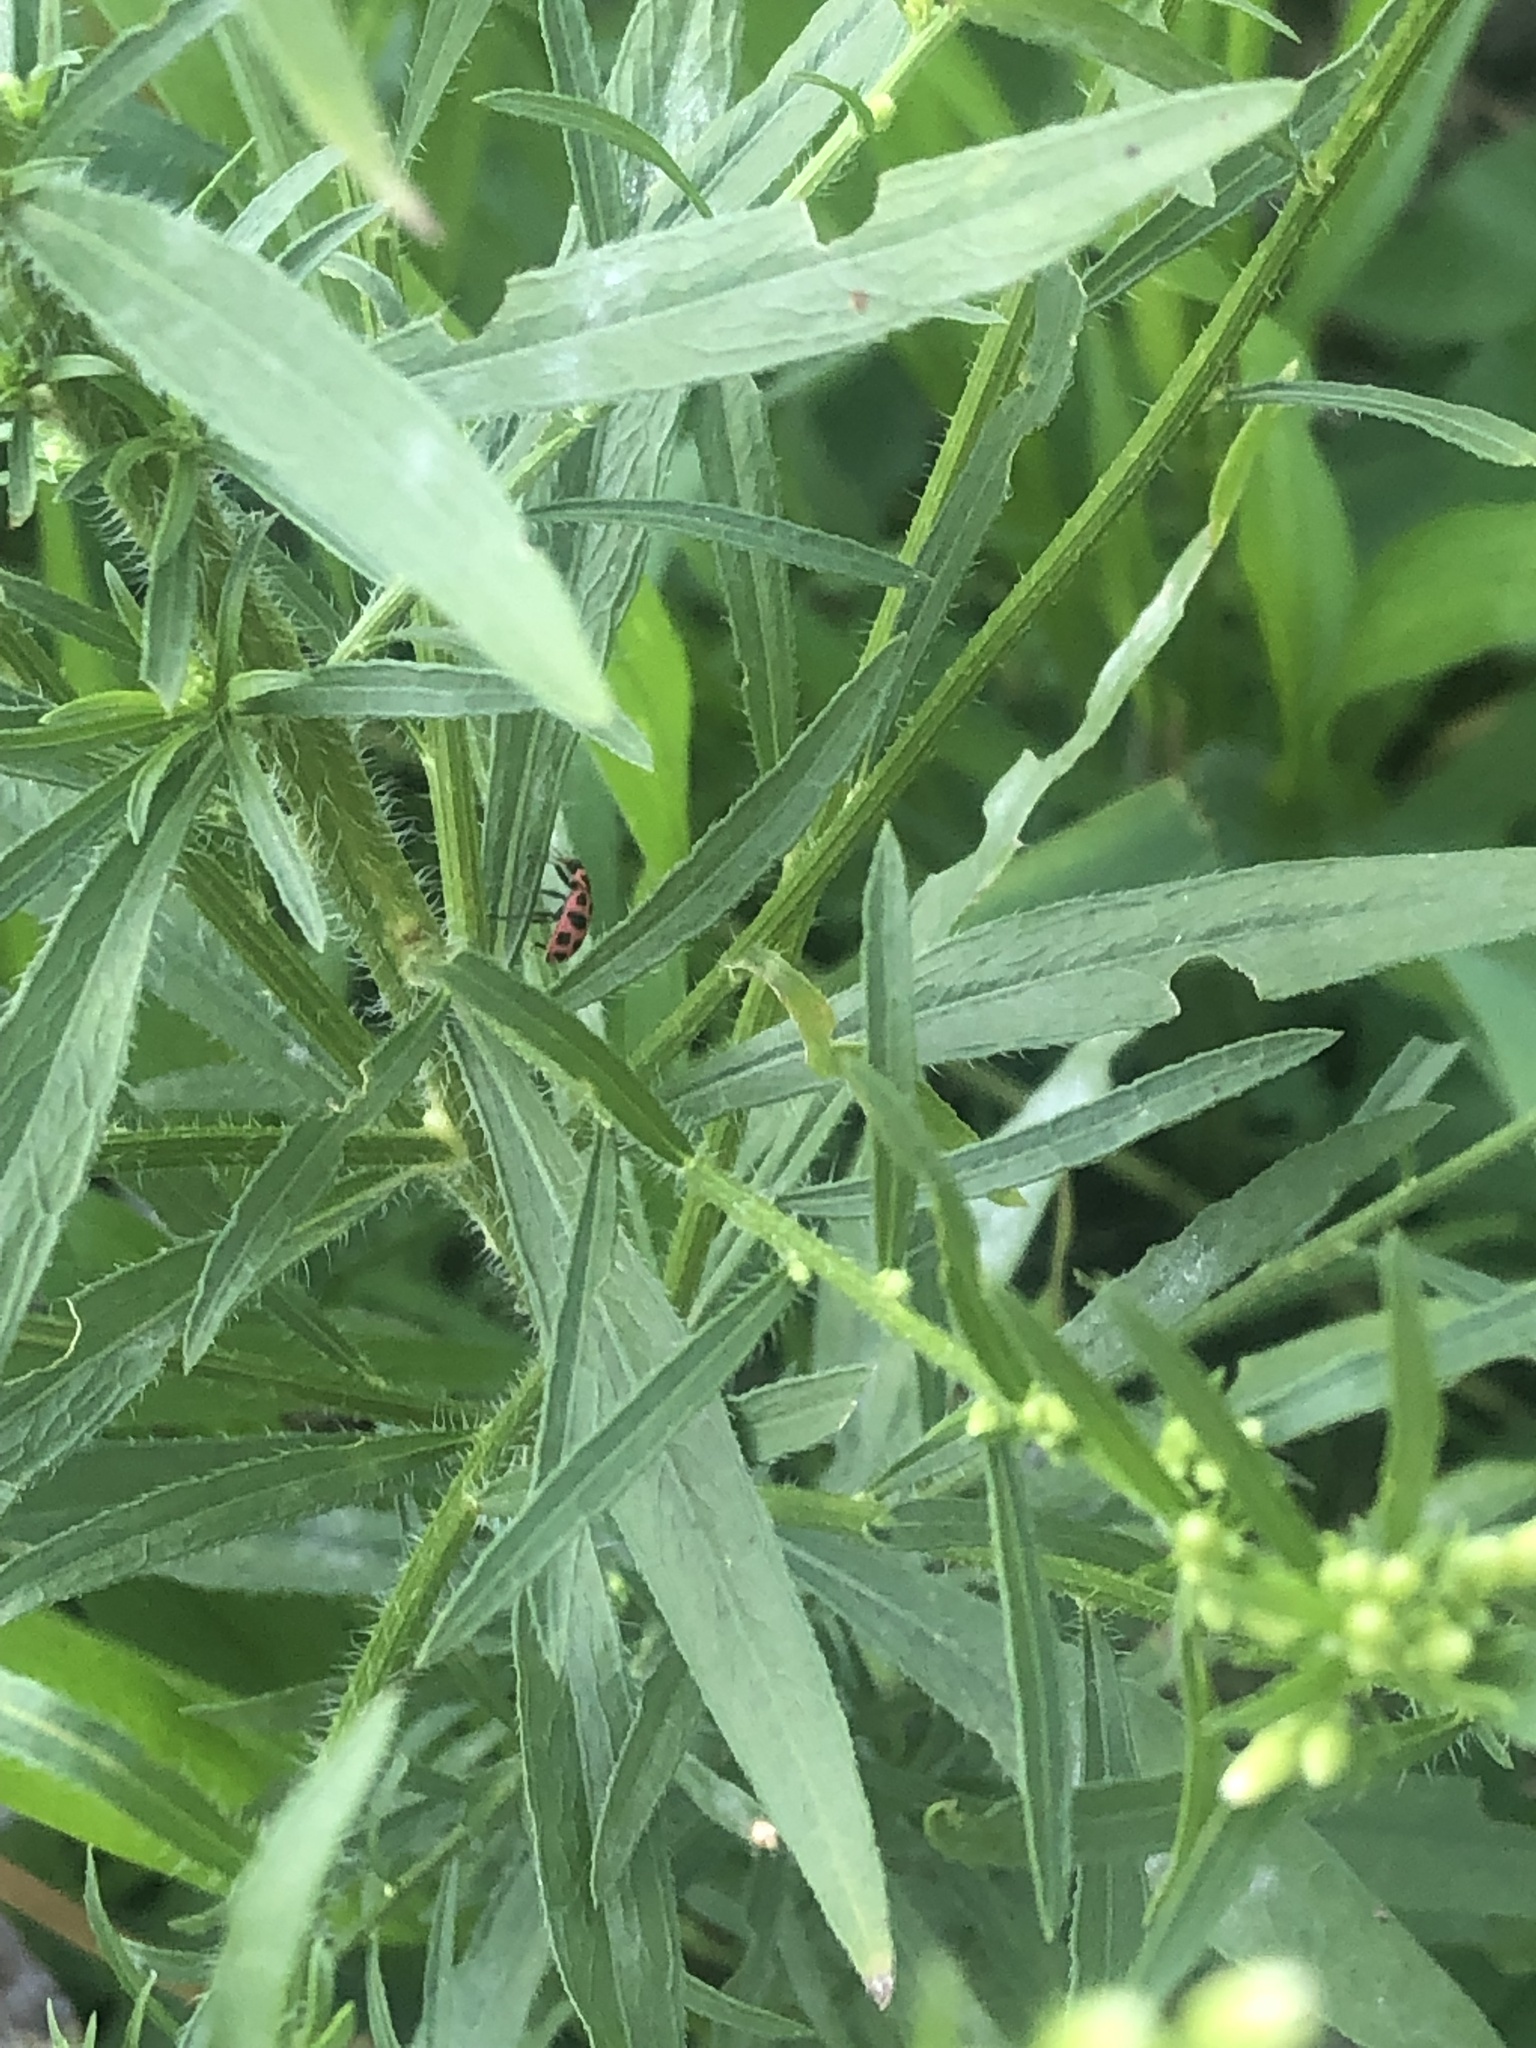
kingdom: Animalia
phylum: Arthropoda
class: Insecta
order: Coleoptera
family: Coccinellidae
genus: Coleomegilla
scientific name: Coleomegilla maculata
